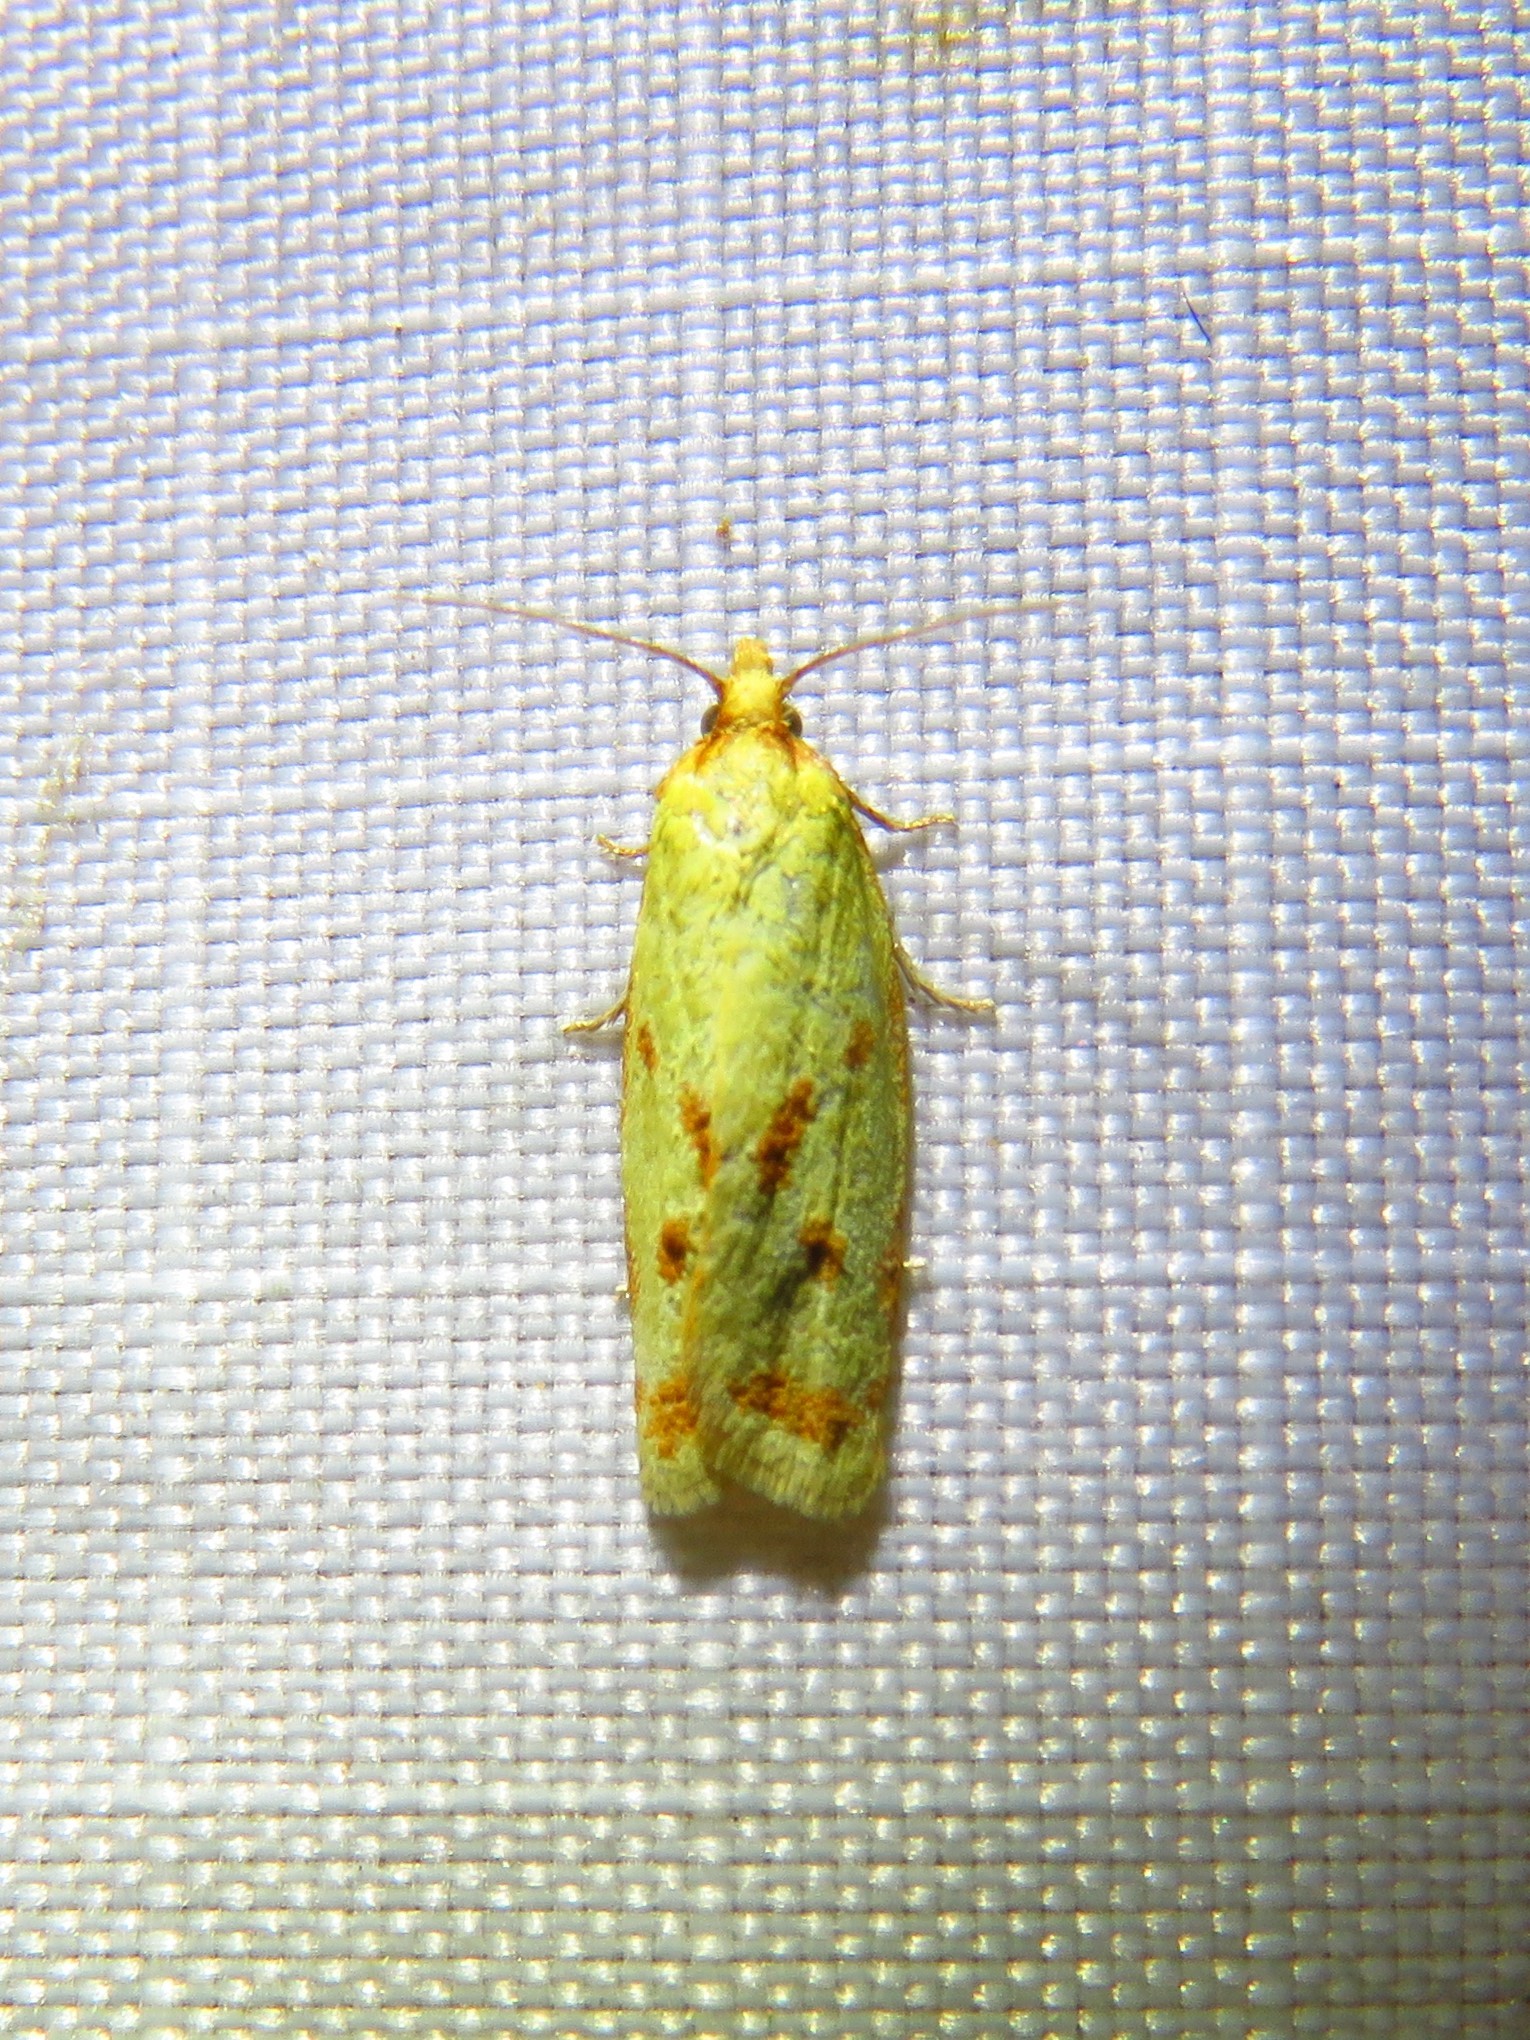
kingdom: Animalia
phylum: Arthropoda
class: Insecta
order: Lepidoptera
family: Tortricidae
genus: Sparganothis
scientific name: Sparganothis sulfureana
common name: Sparganothis fruitworm moth
